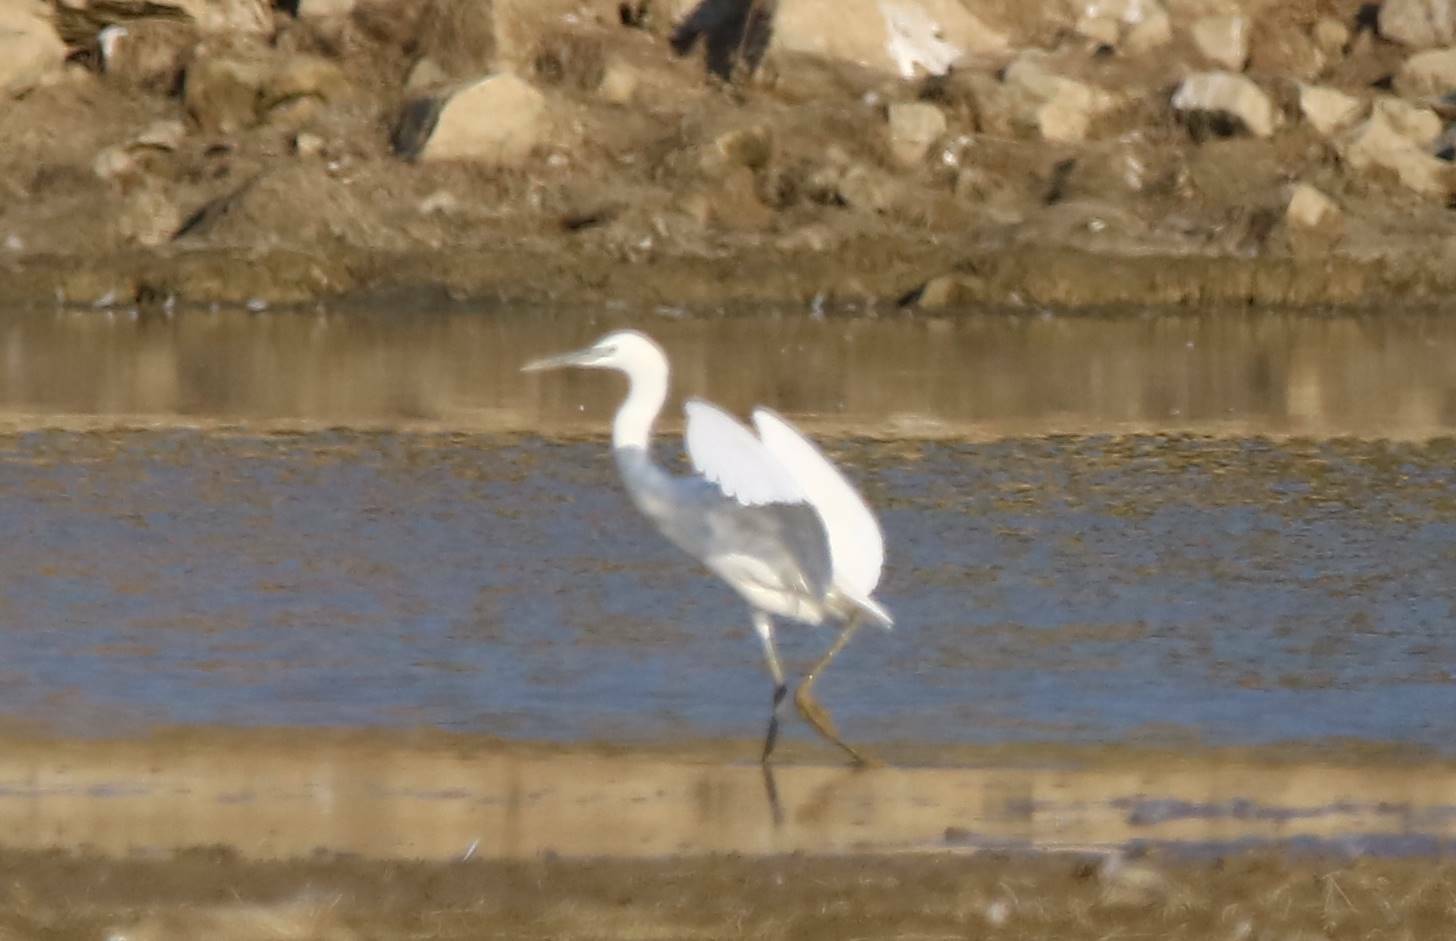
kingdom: Animalia
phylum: Chordata
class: Aves
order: Pelecaniformes
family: Ardeidae
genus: Egretta
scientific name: Egretta garzetta
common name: Little egret
